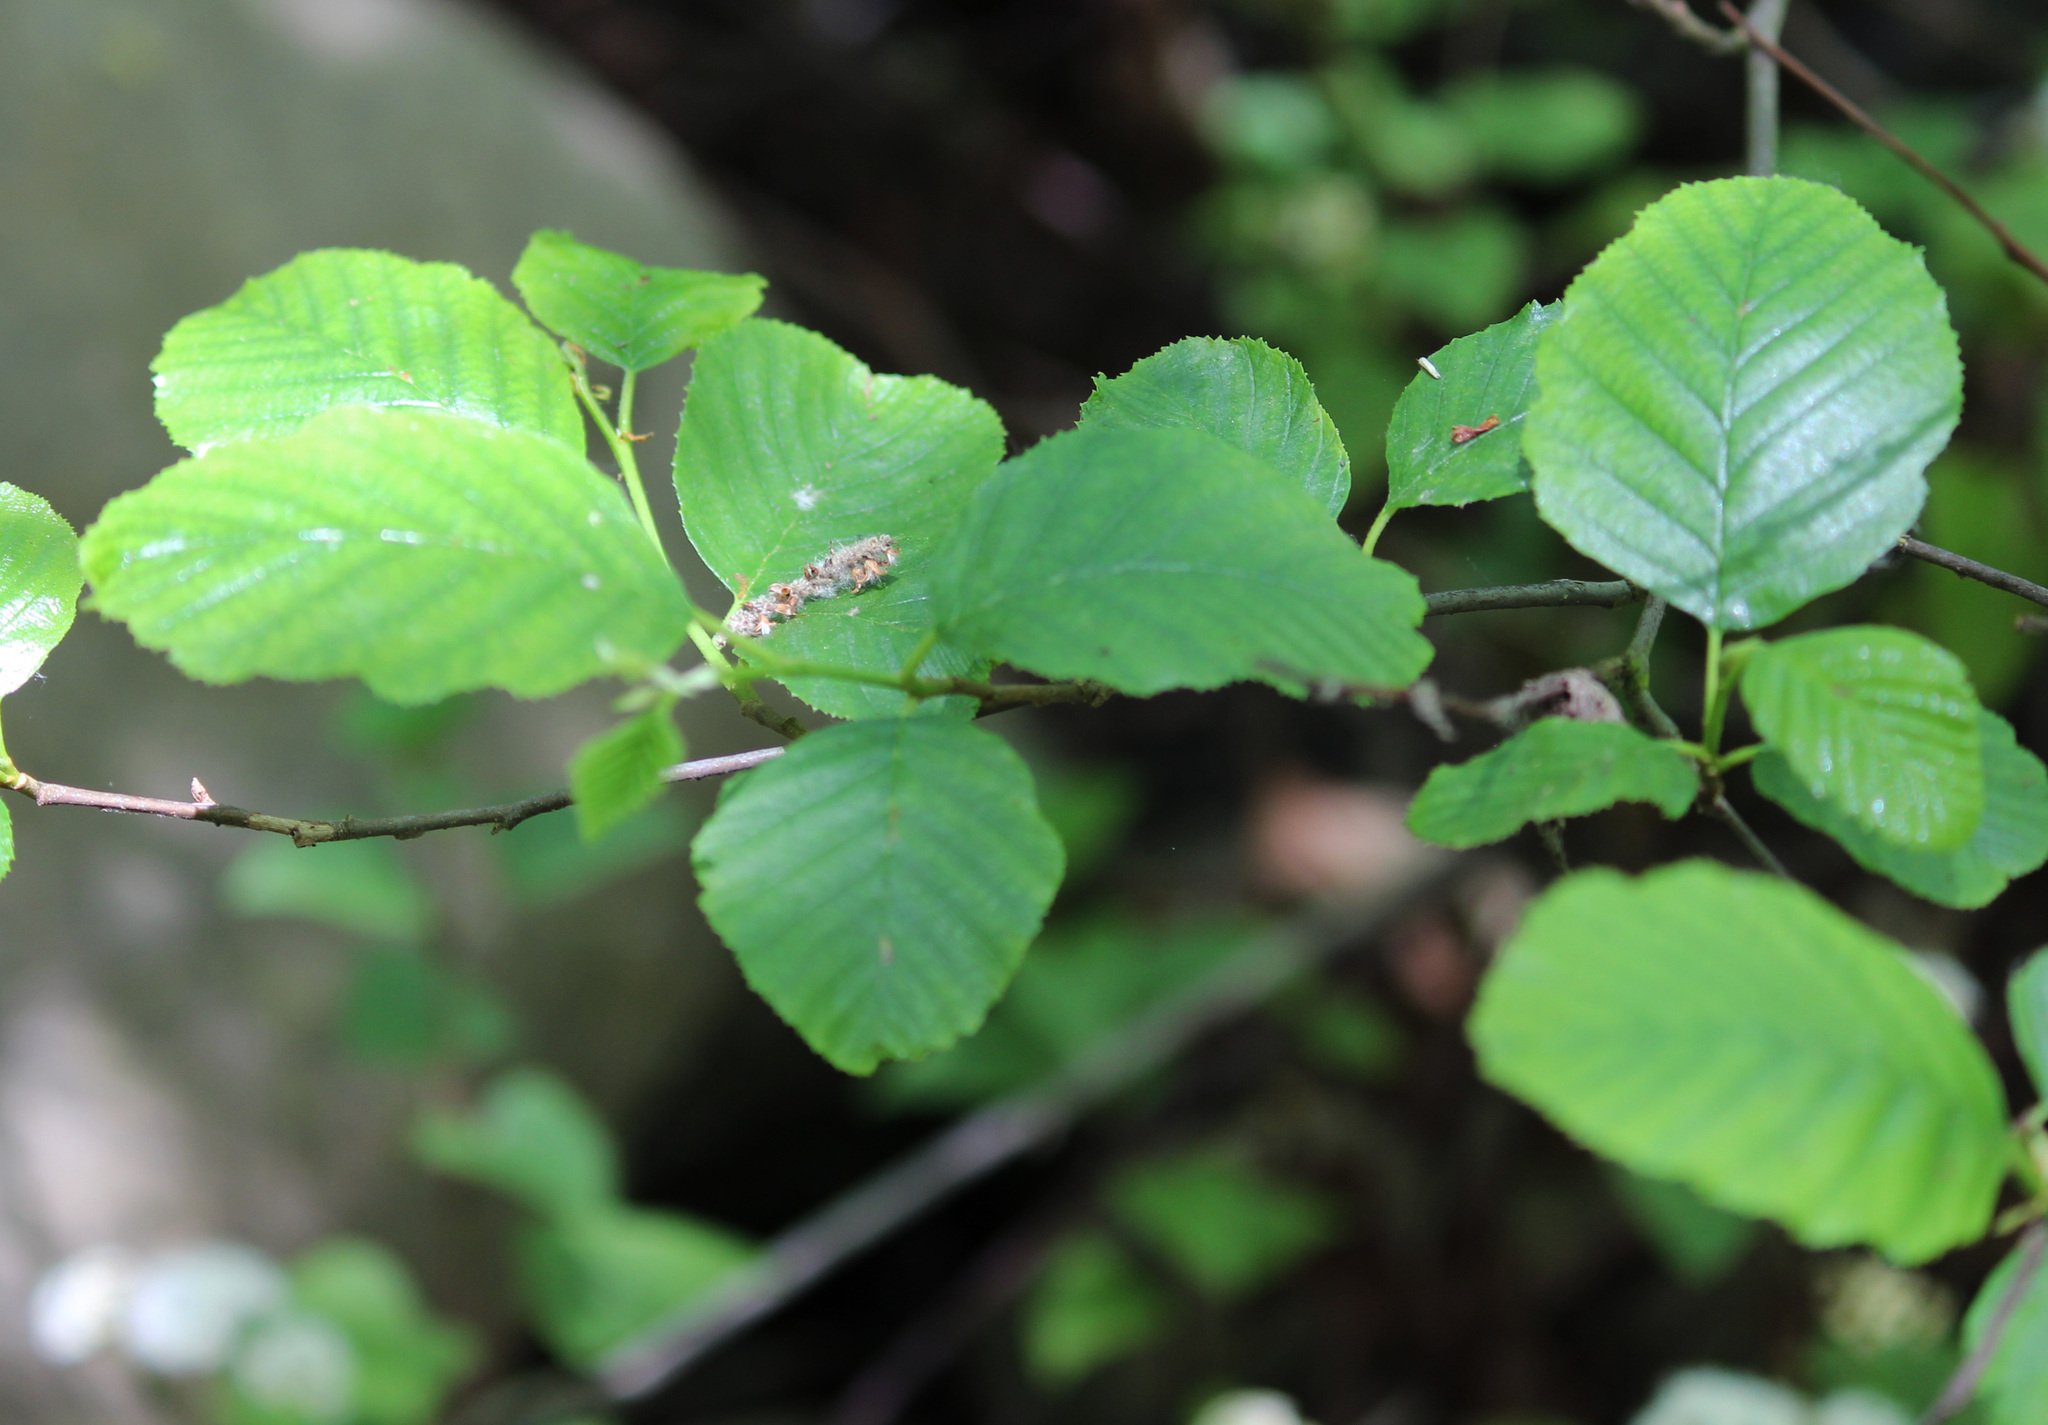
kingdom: Plantae
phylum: Tracheophyta
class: Magnoliopsida
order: Fagales
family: Betulaceae
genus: Alnus
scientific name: Alnus rhombifolia
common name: California alder
